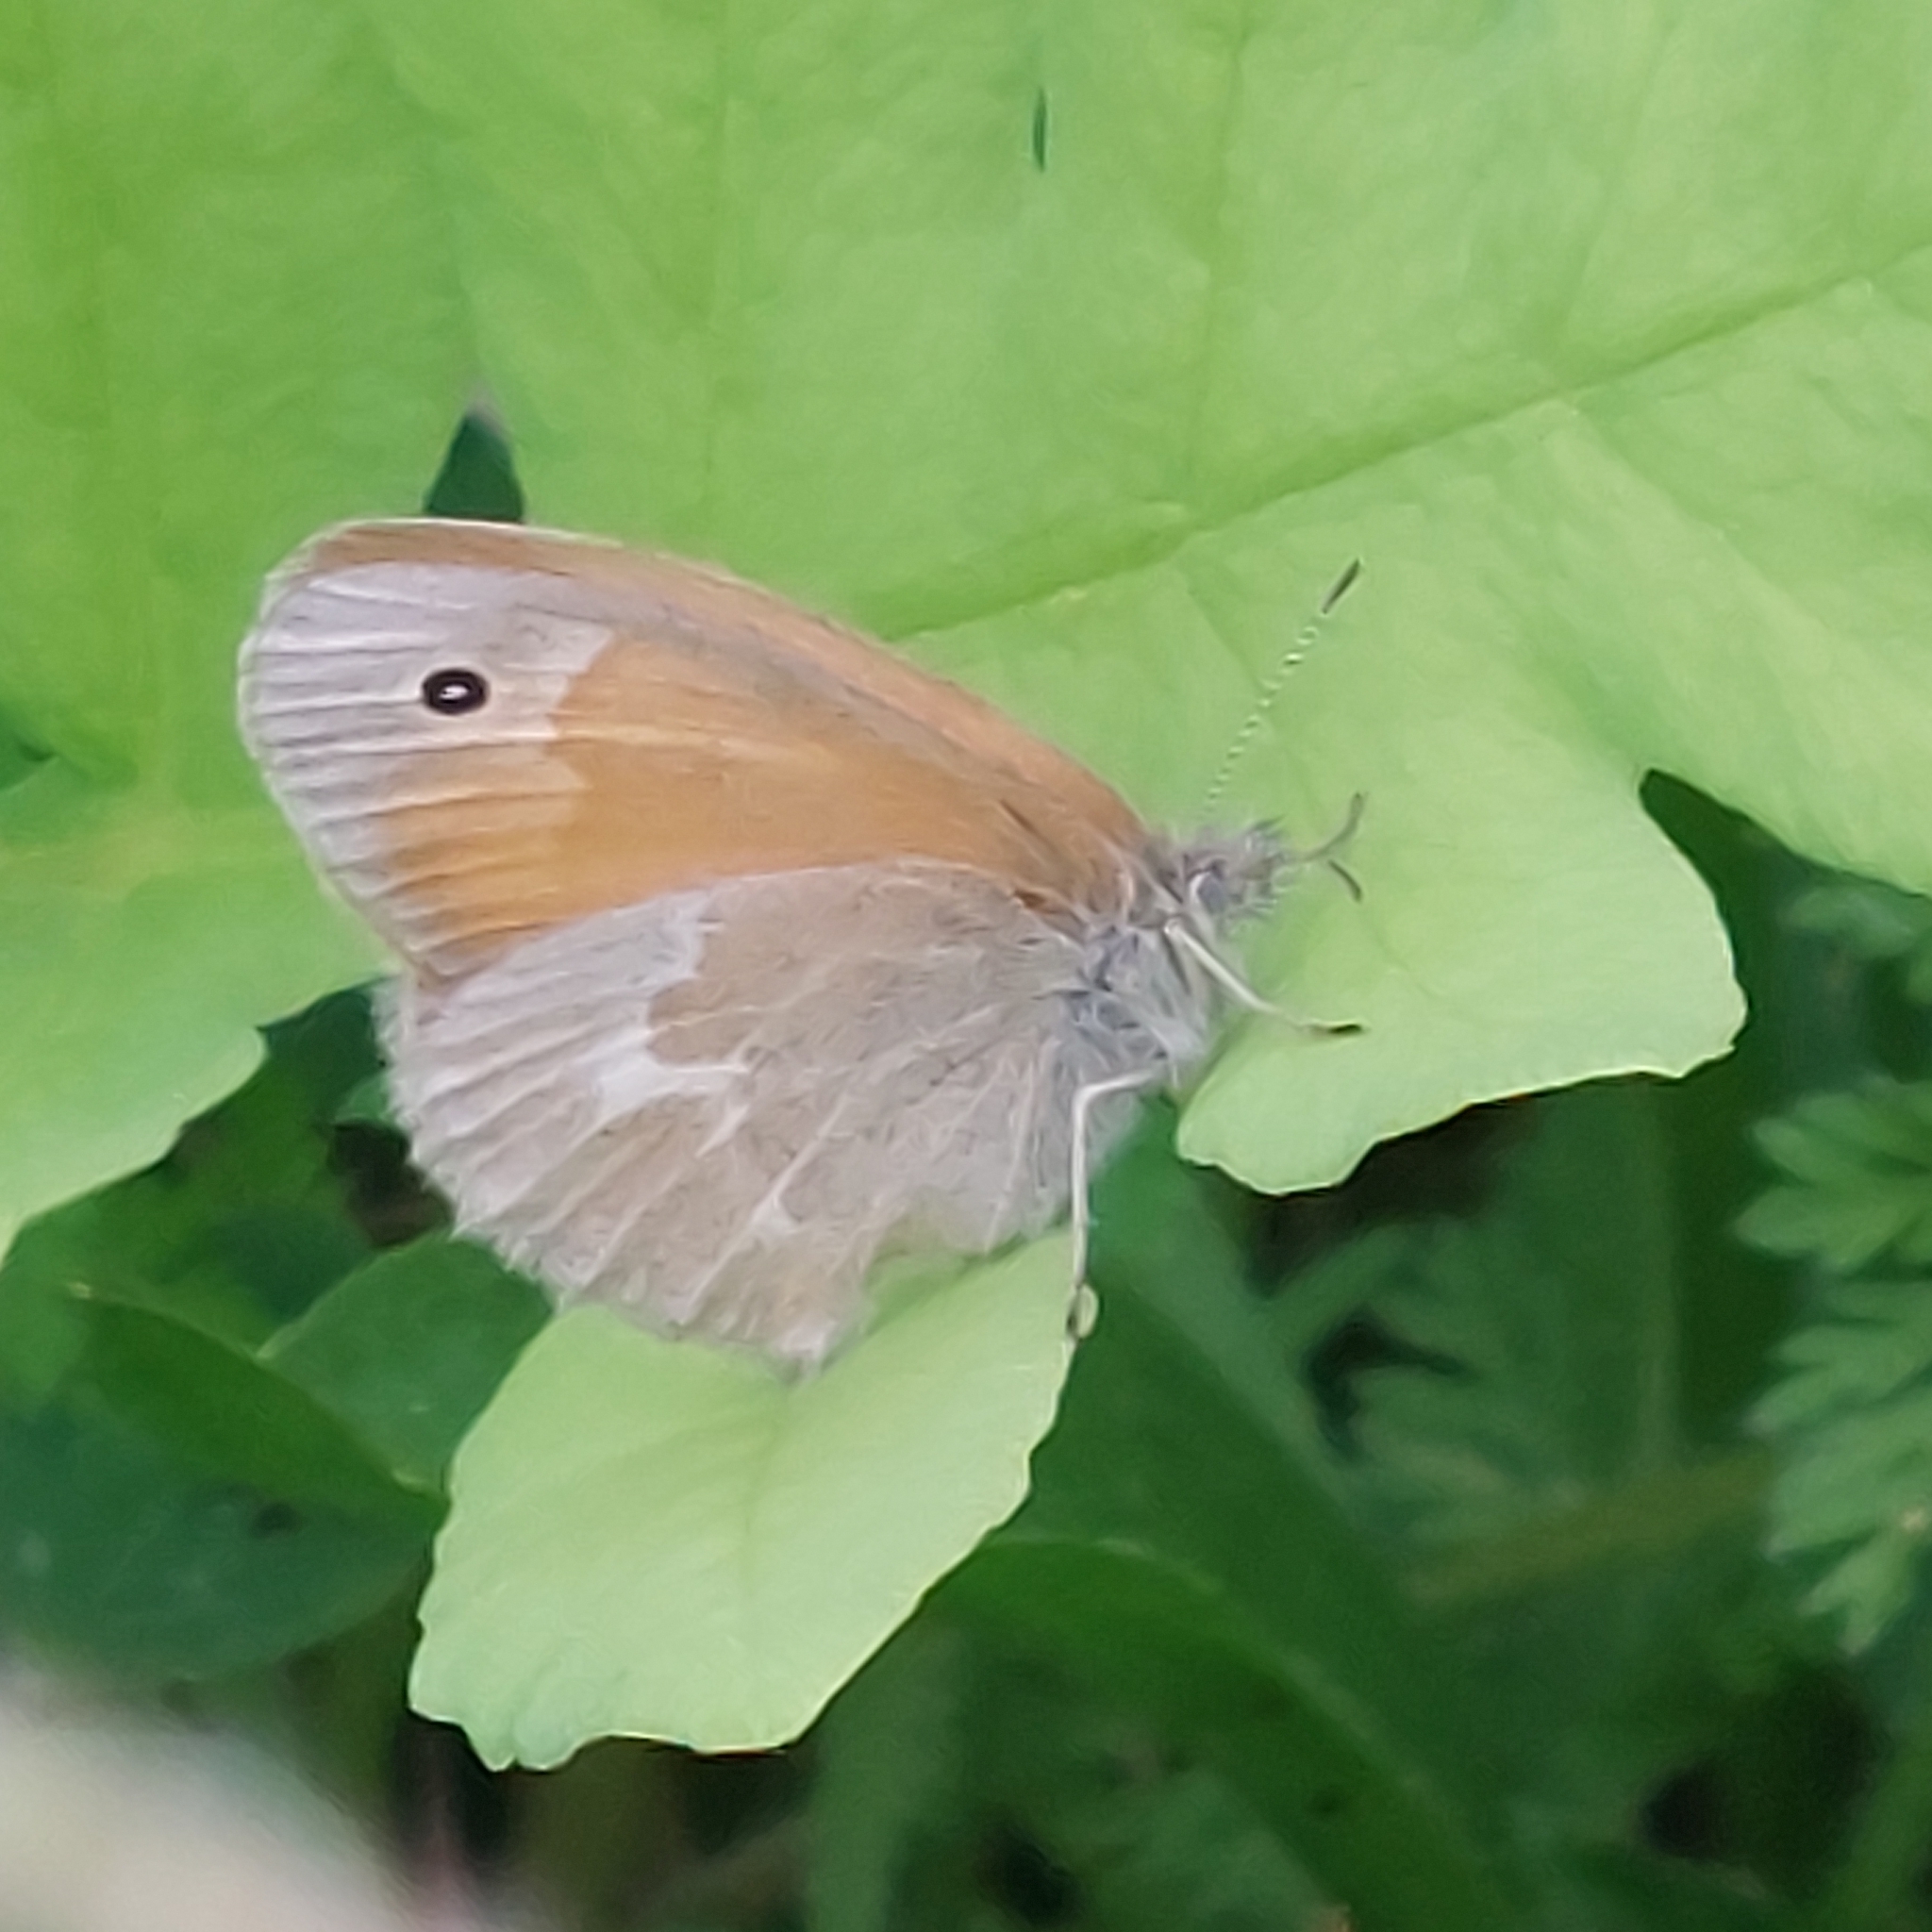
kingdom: Animalia
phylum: Arthropoda
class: Insecta
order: Lepidoptera
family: Nymphalidae
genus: Coenonympha
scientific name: Coenonympha california
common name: Common ringlet
